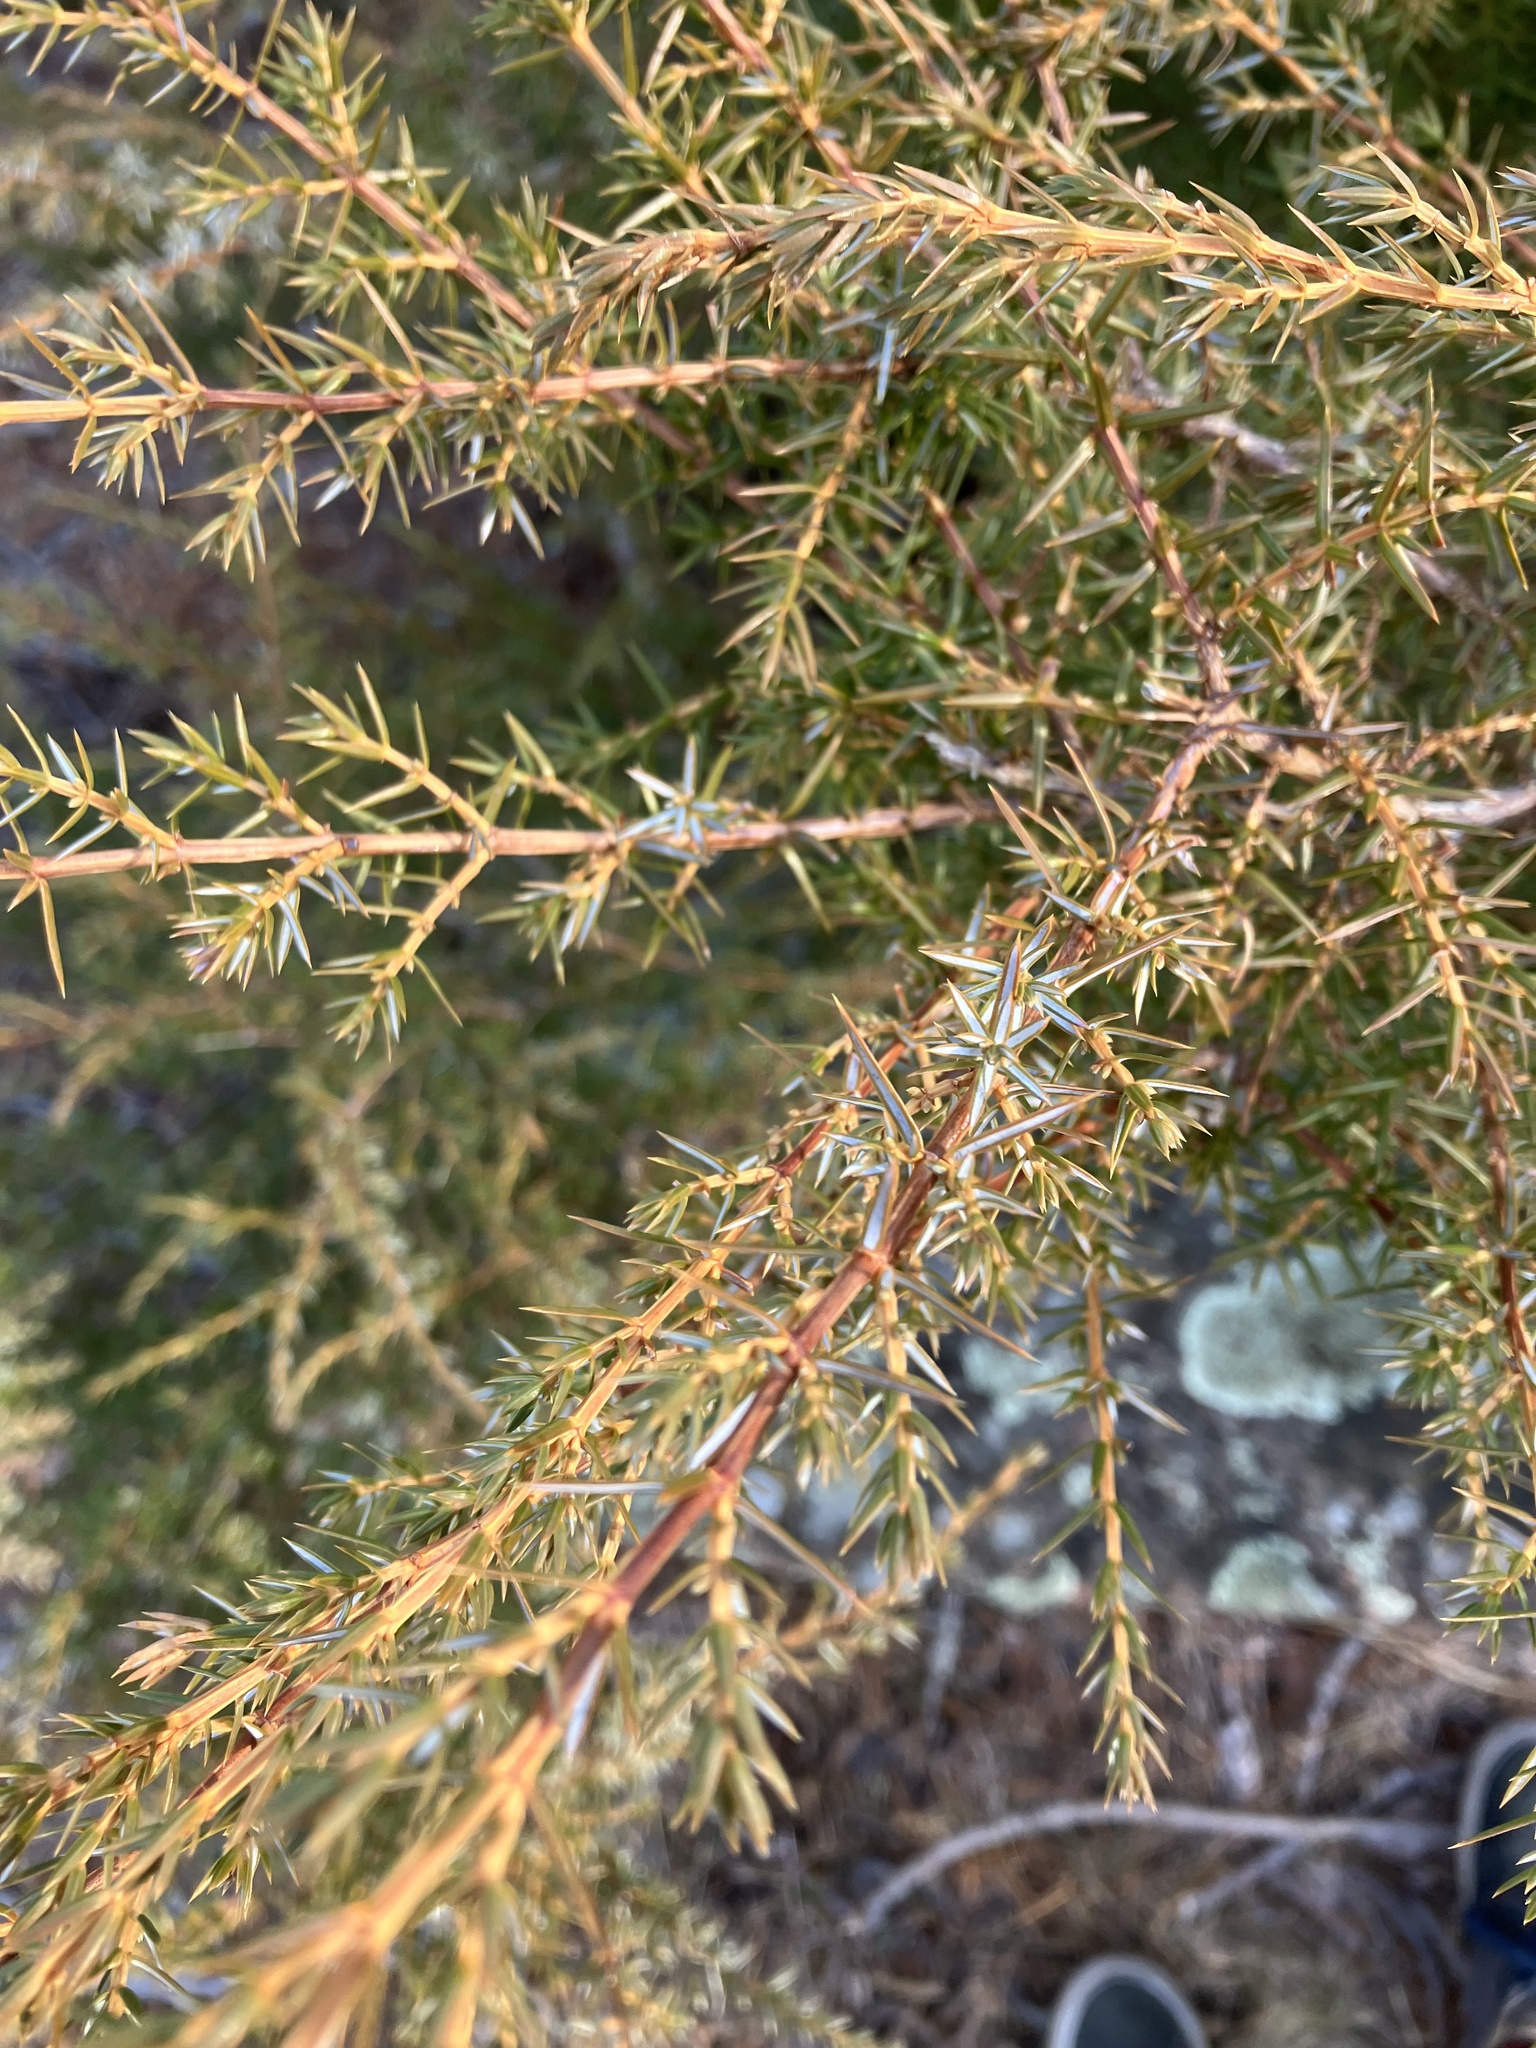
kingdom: Plantae
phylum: Tracheophyta
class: Pinopsida
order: Pinales
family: Cupressaceae
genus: Juniperus
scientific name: Juniperus communis
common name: Common juniper
